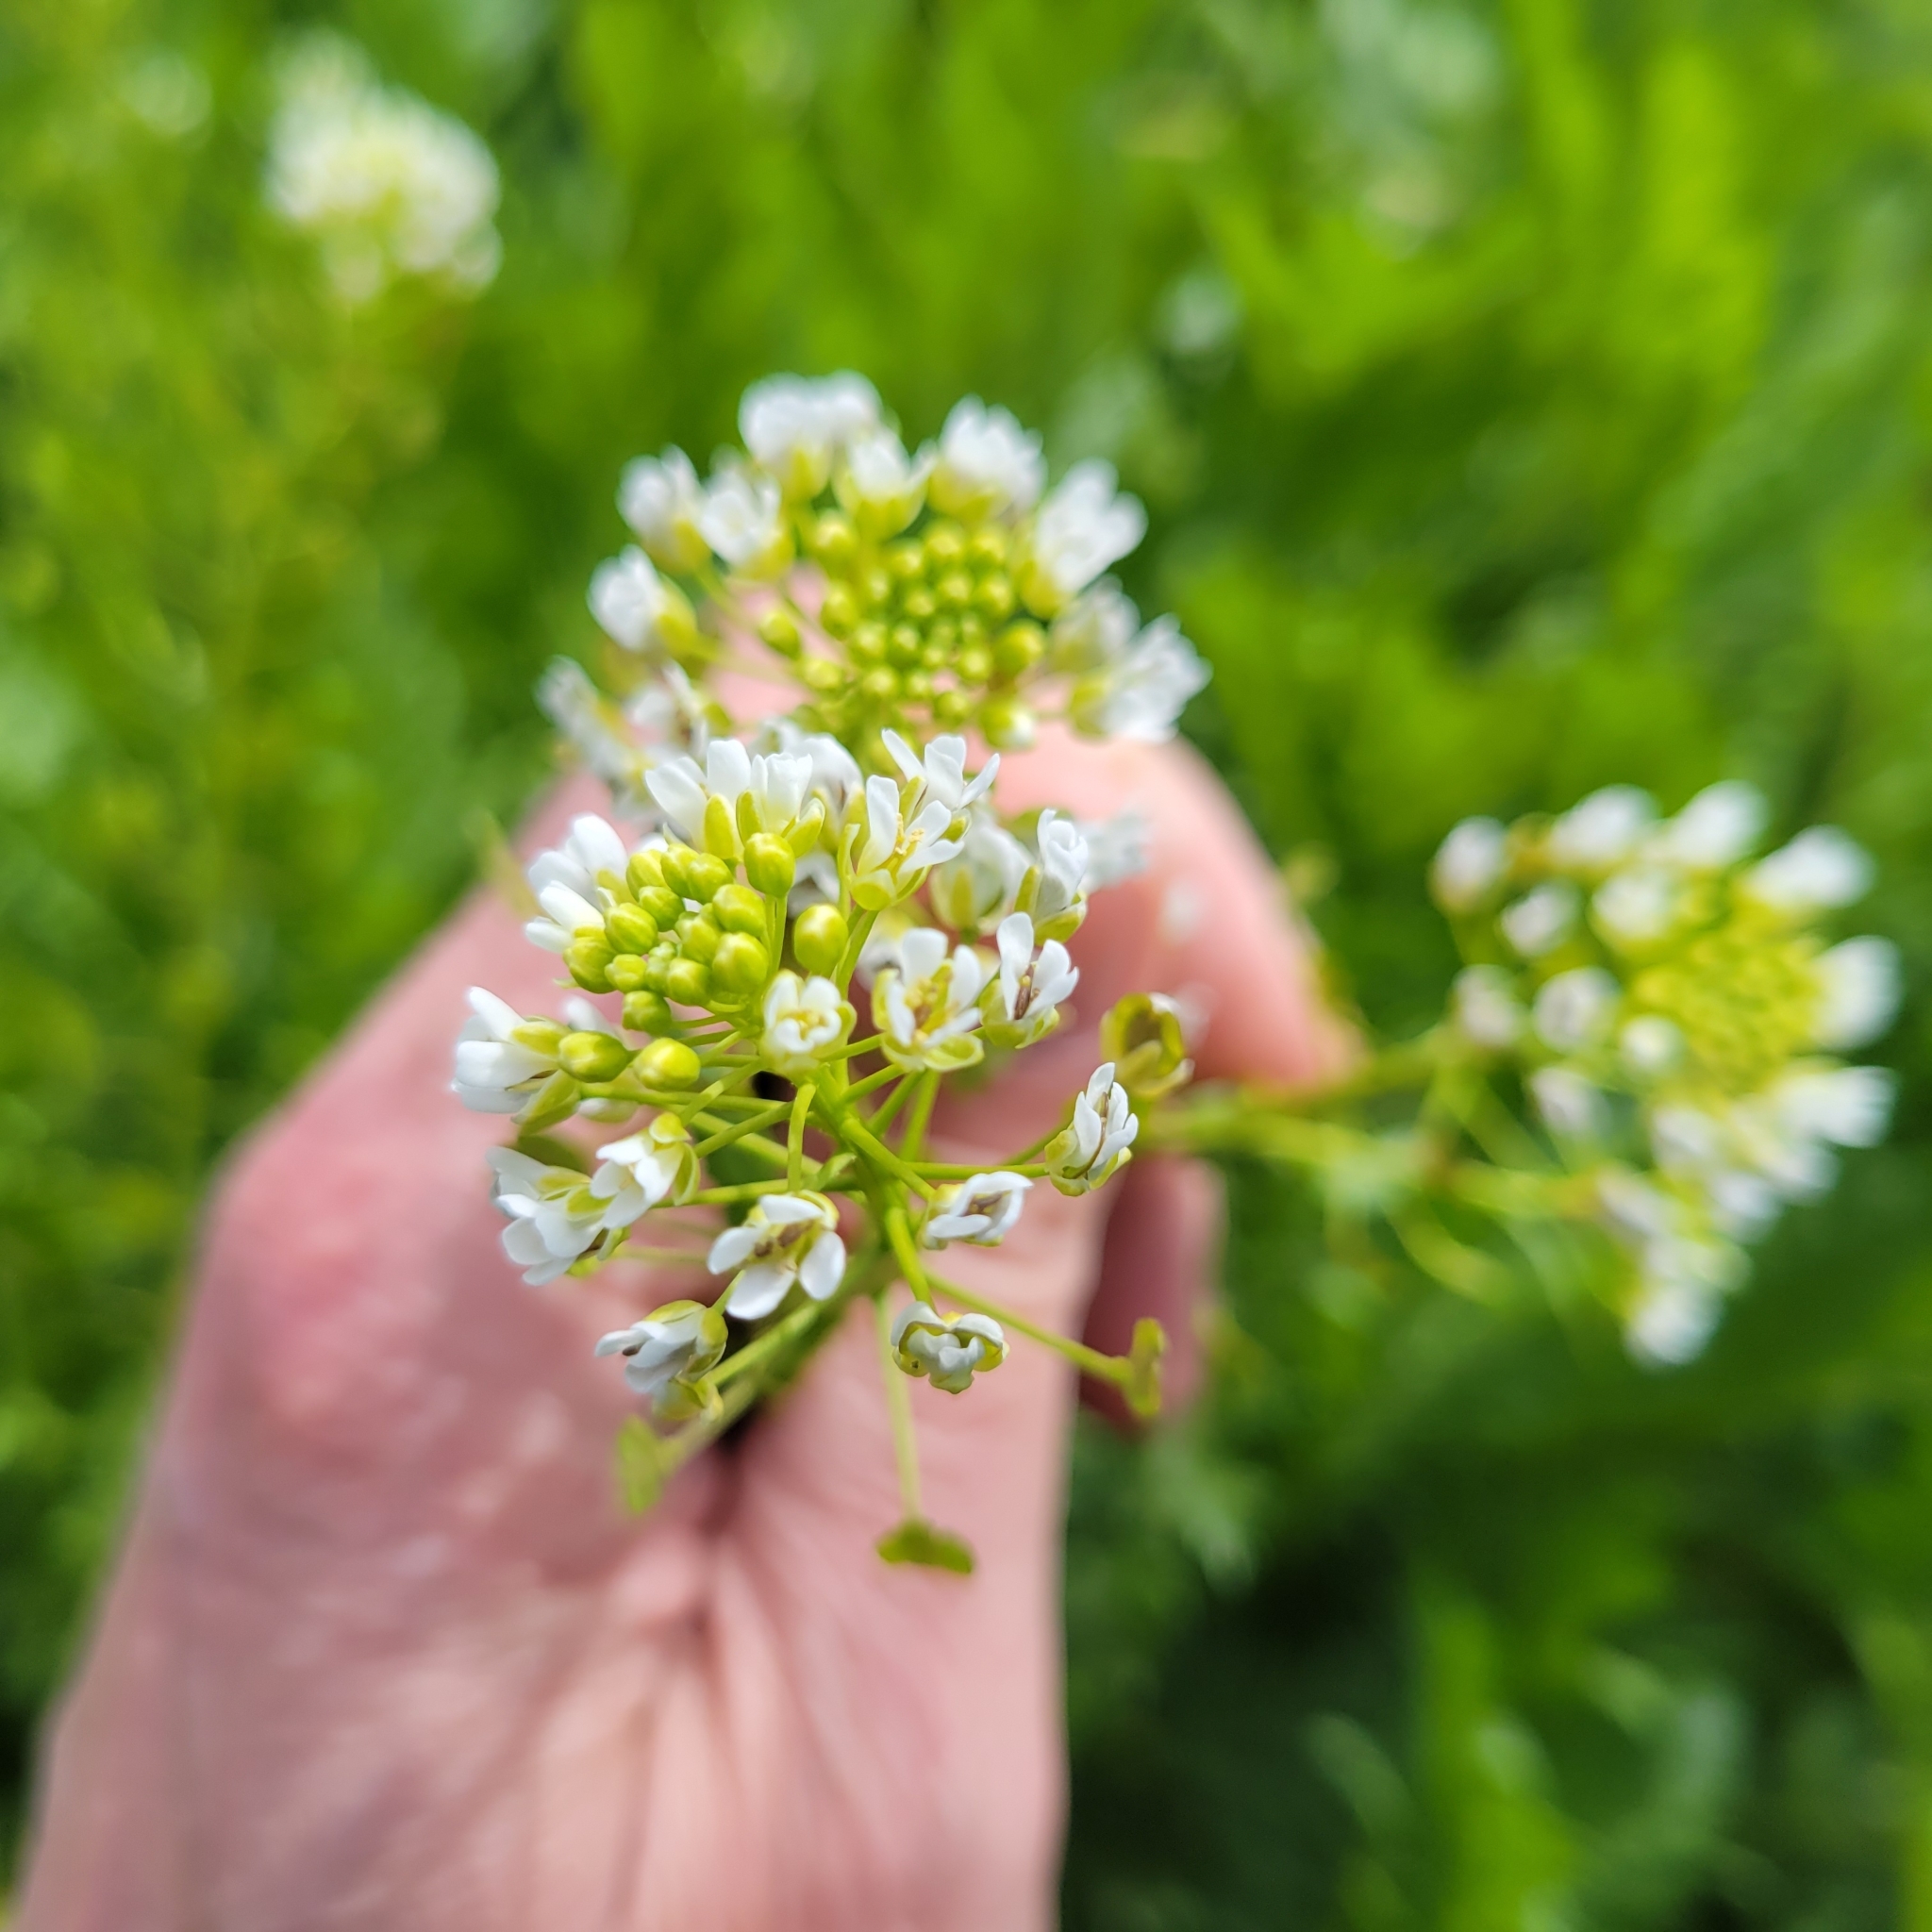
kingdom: Plantae
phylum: Tracheophyta
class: Magnoliopsida
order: Brassicales
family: Brassicaceae
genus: Thlaspi
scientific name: Thlaspi arvense
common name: Field pennycress
